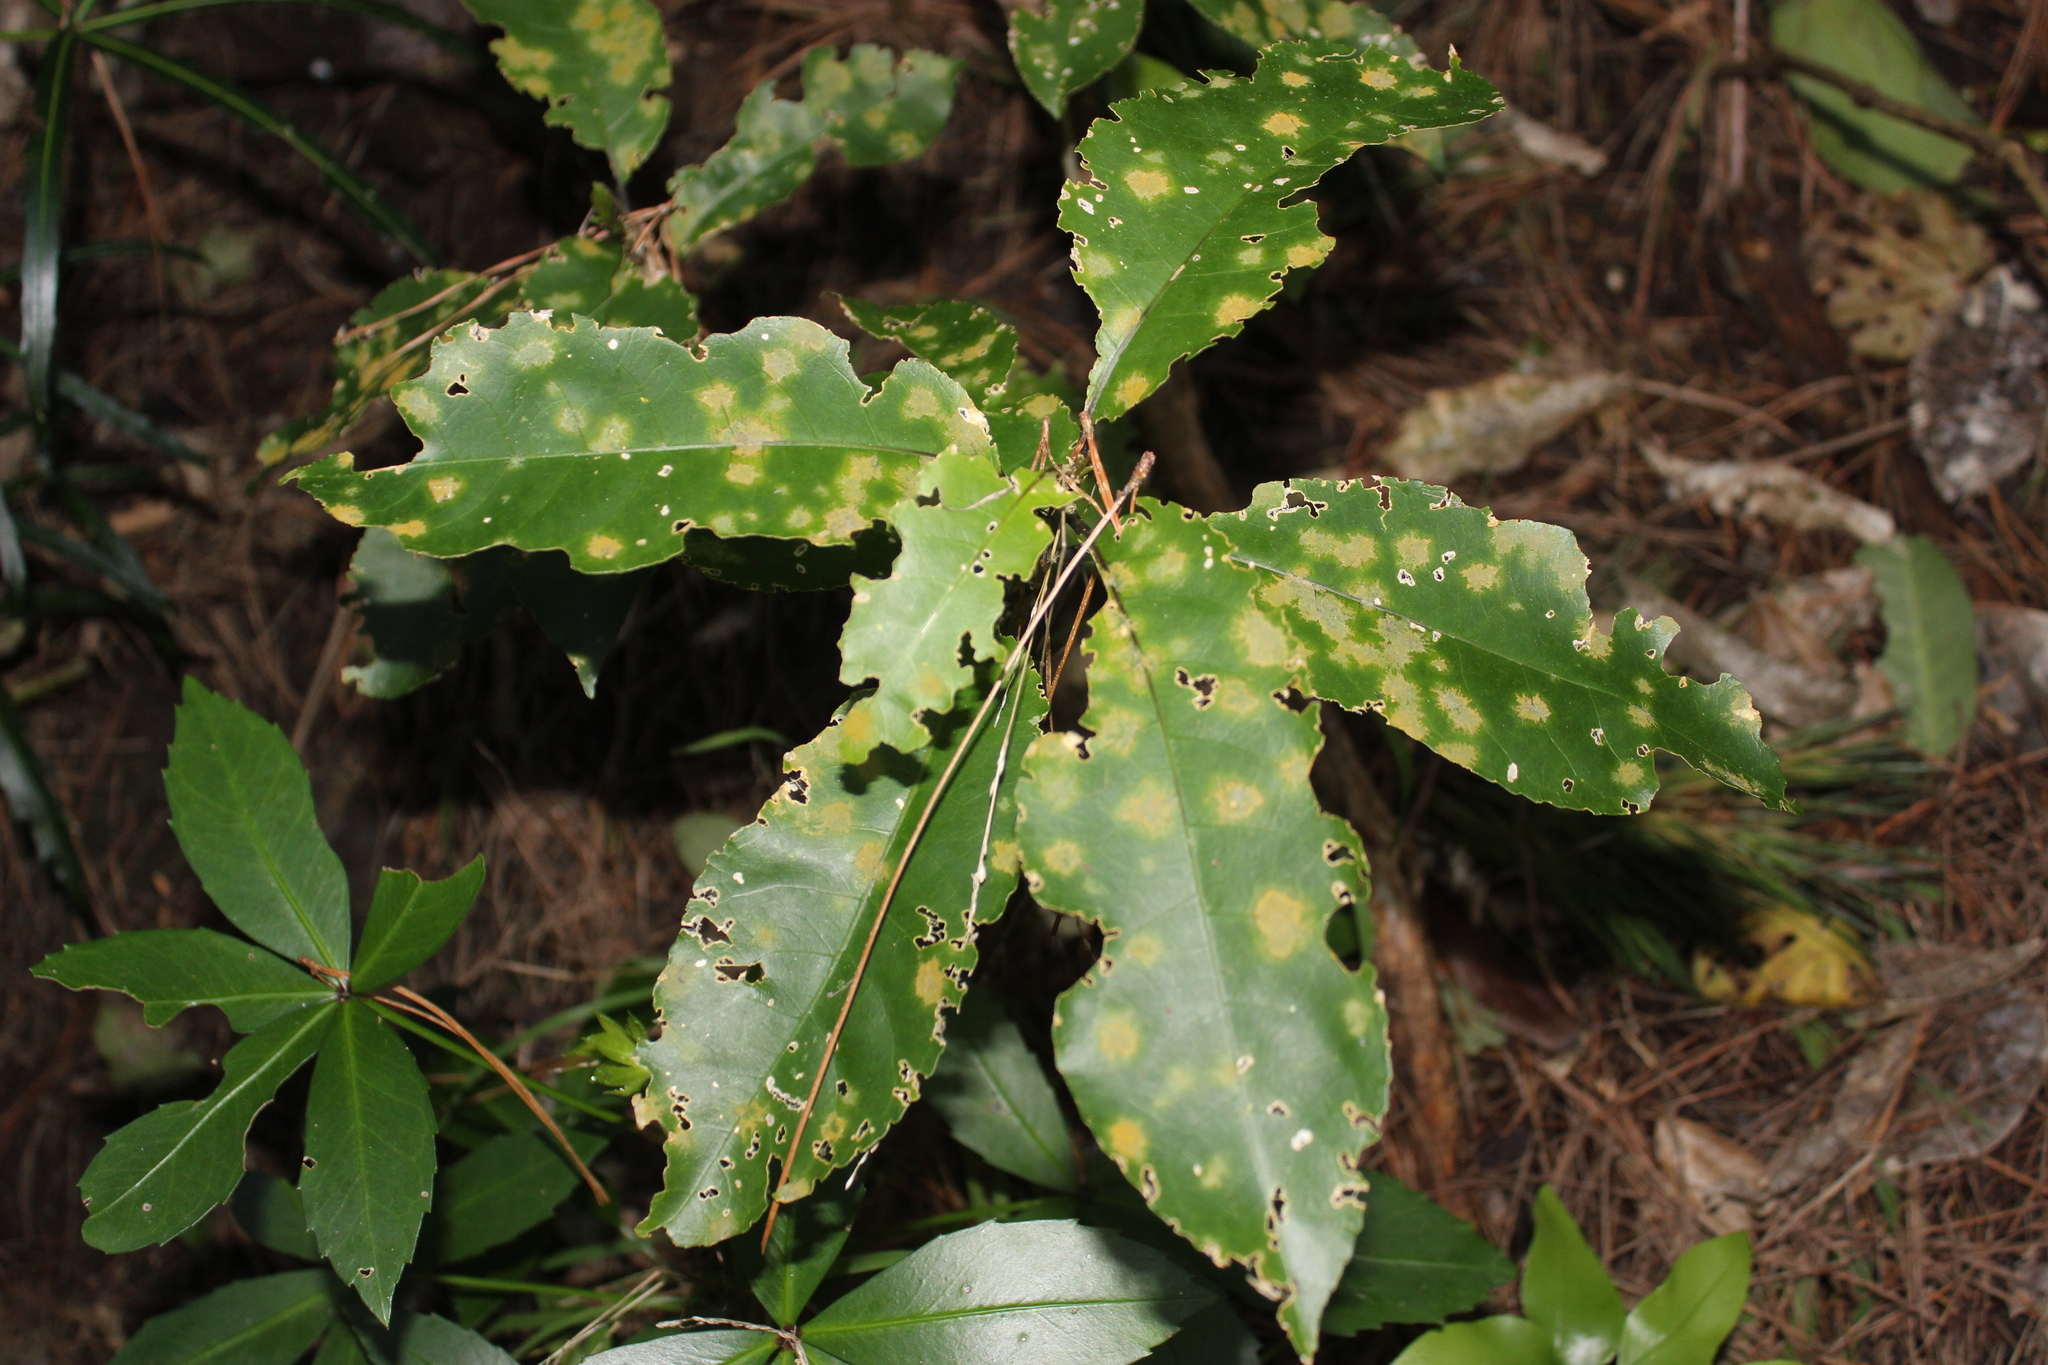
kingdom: Plantae
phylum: Tracheophyta
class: Magnoliopsida
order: Malpighiales
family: Violaceae
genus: Melicytus
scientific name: Melicytus ramiflorus
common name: Mahoe
